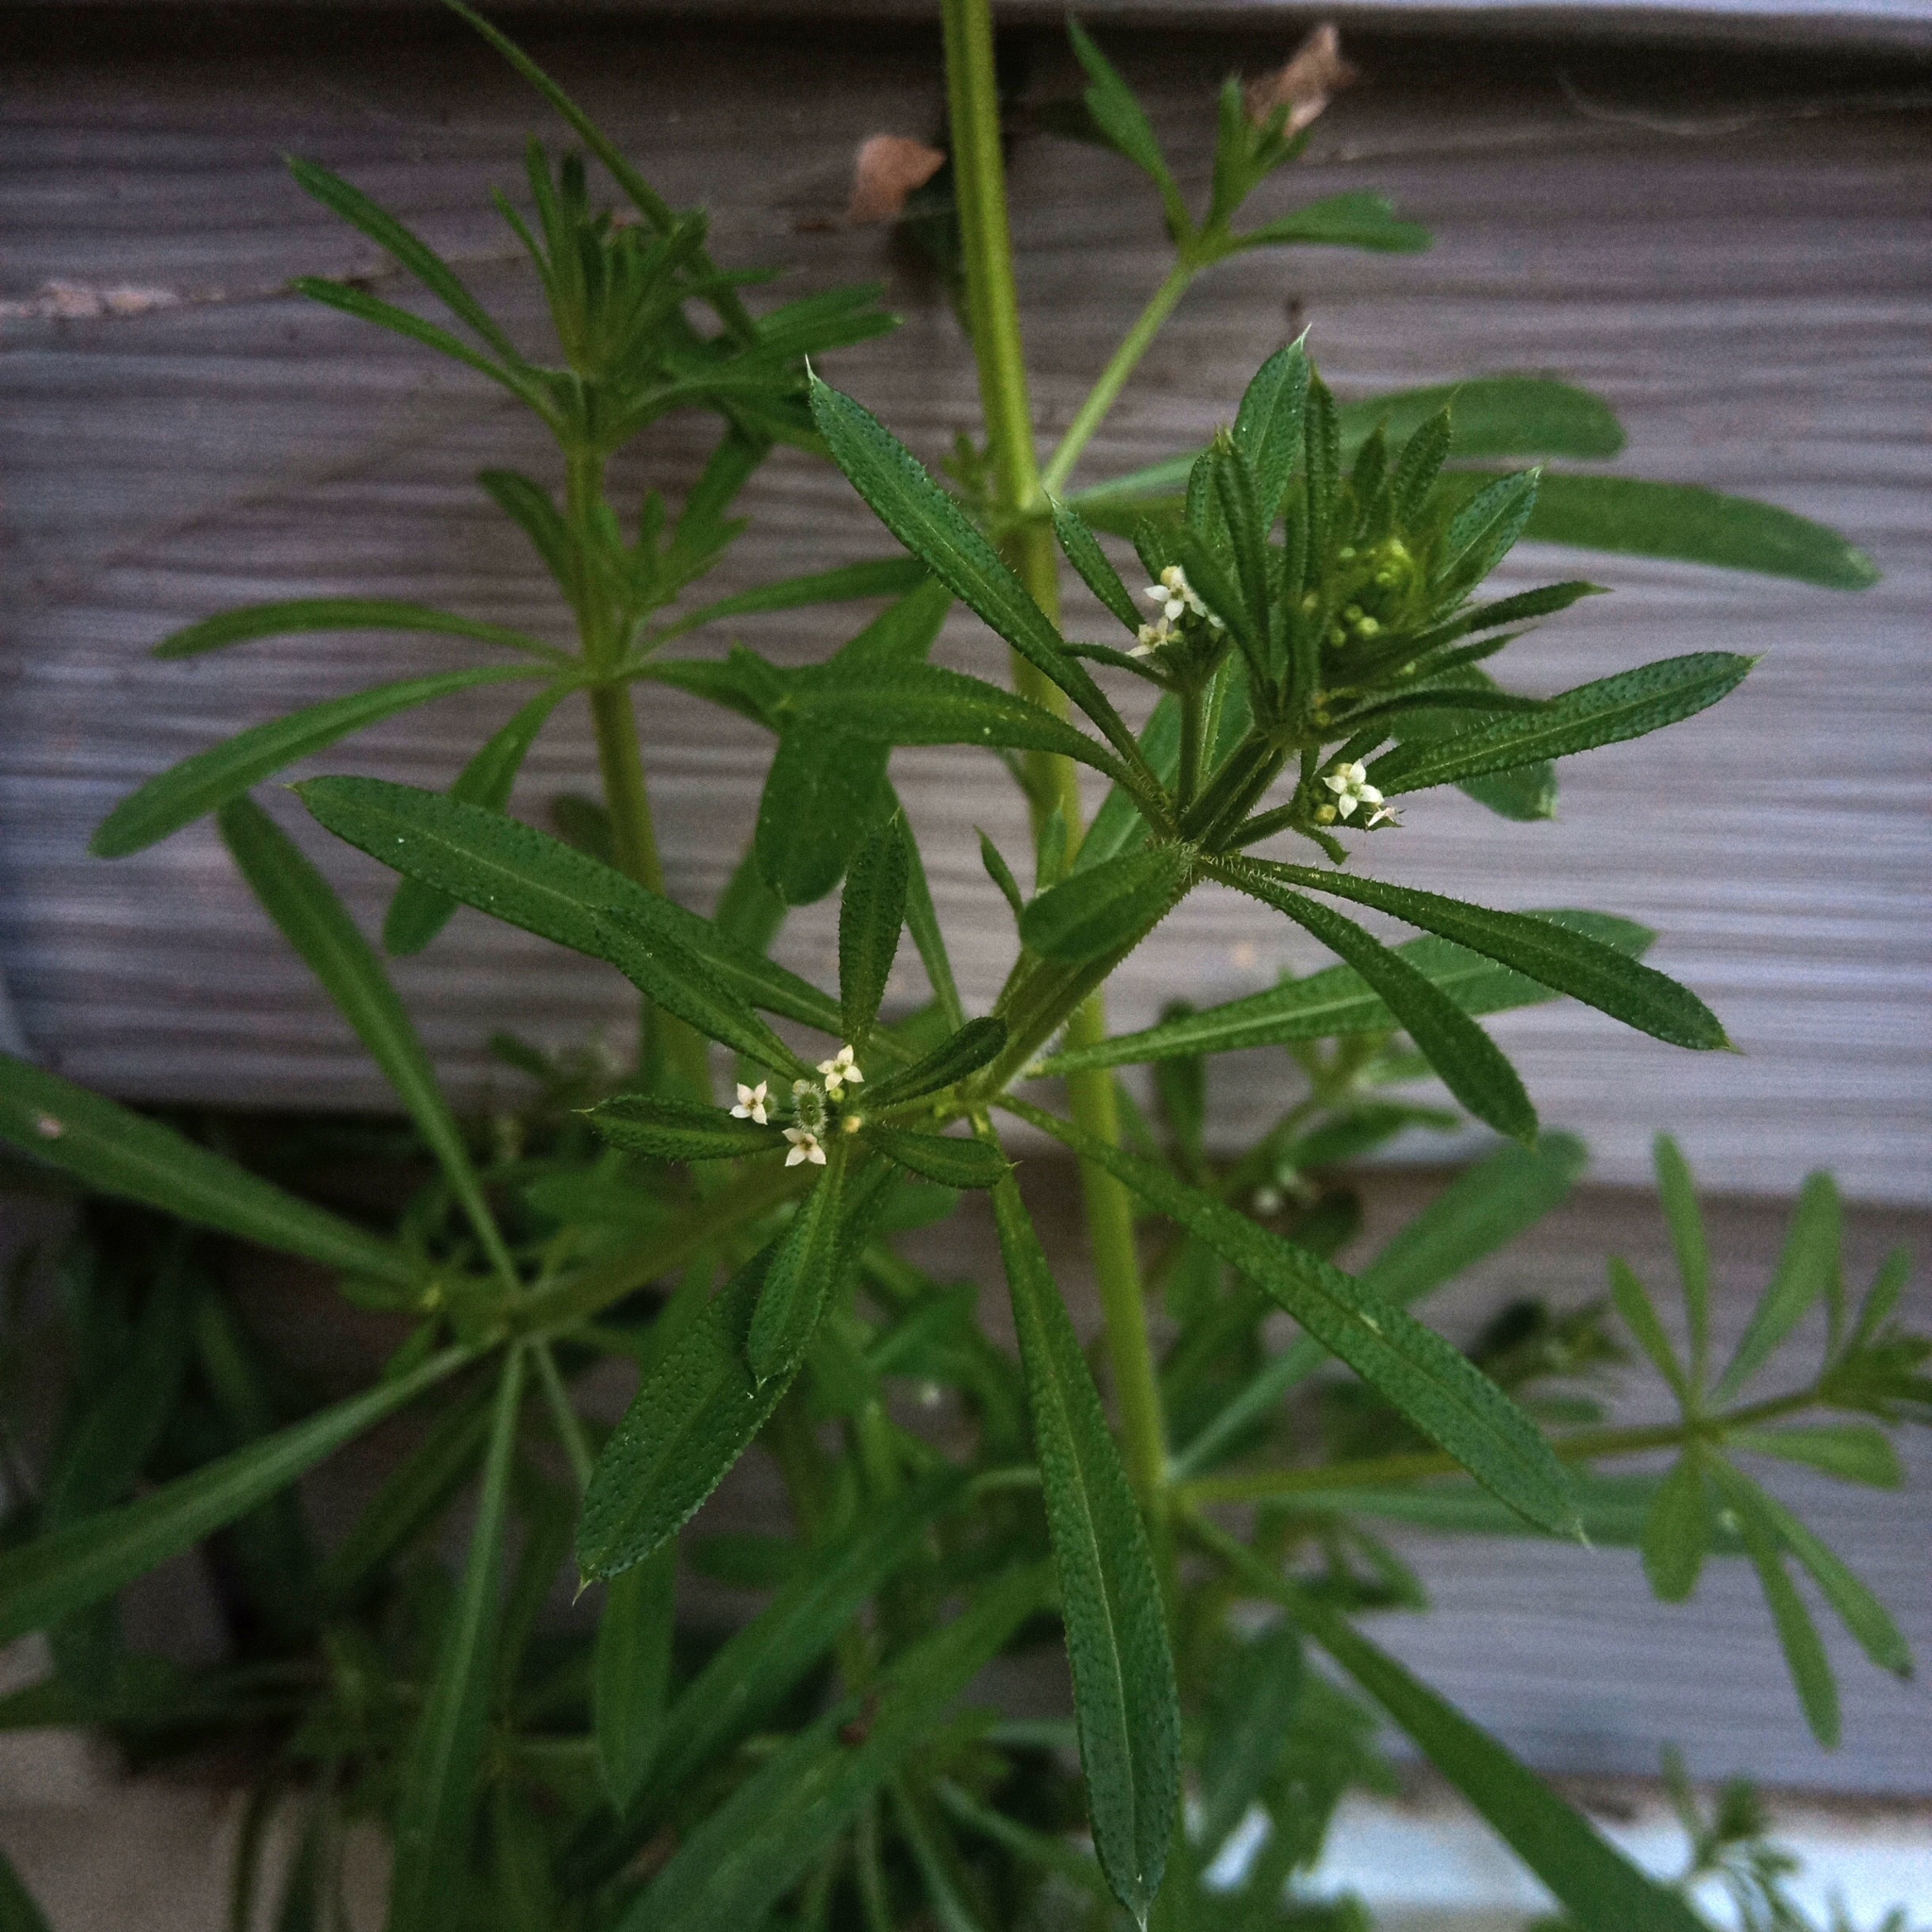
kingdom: Plantae
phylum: Tracheophyta
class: Magnoliopsida
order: Gentianales
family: Rubiaceae
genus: Galium
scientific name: Galium aparine
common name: Cleavers
